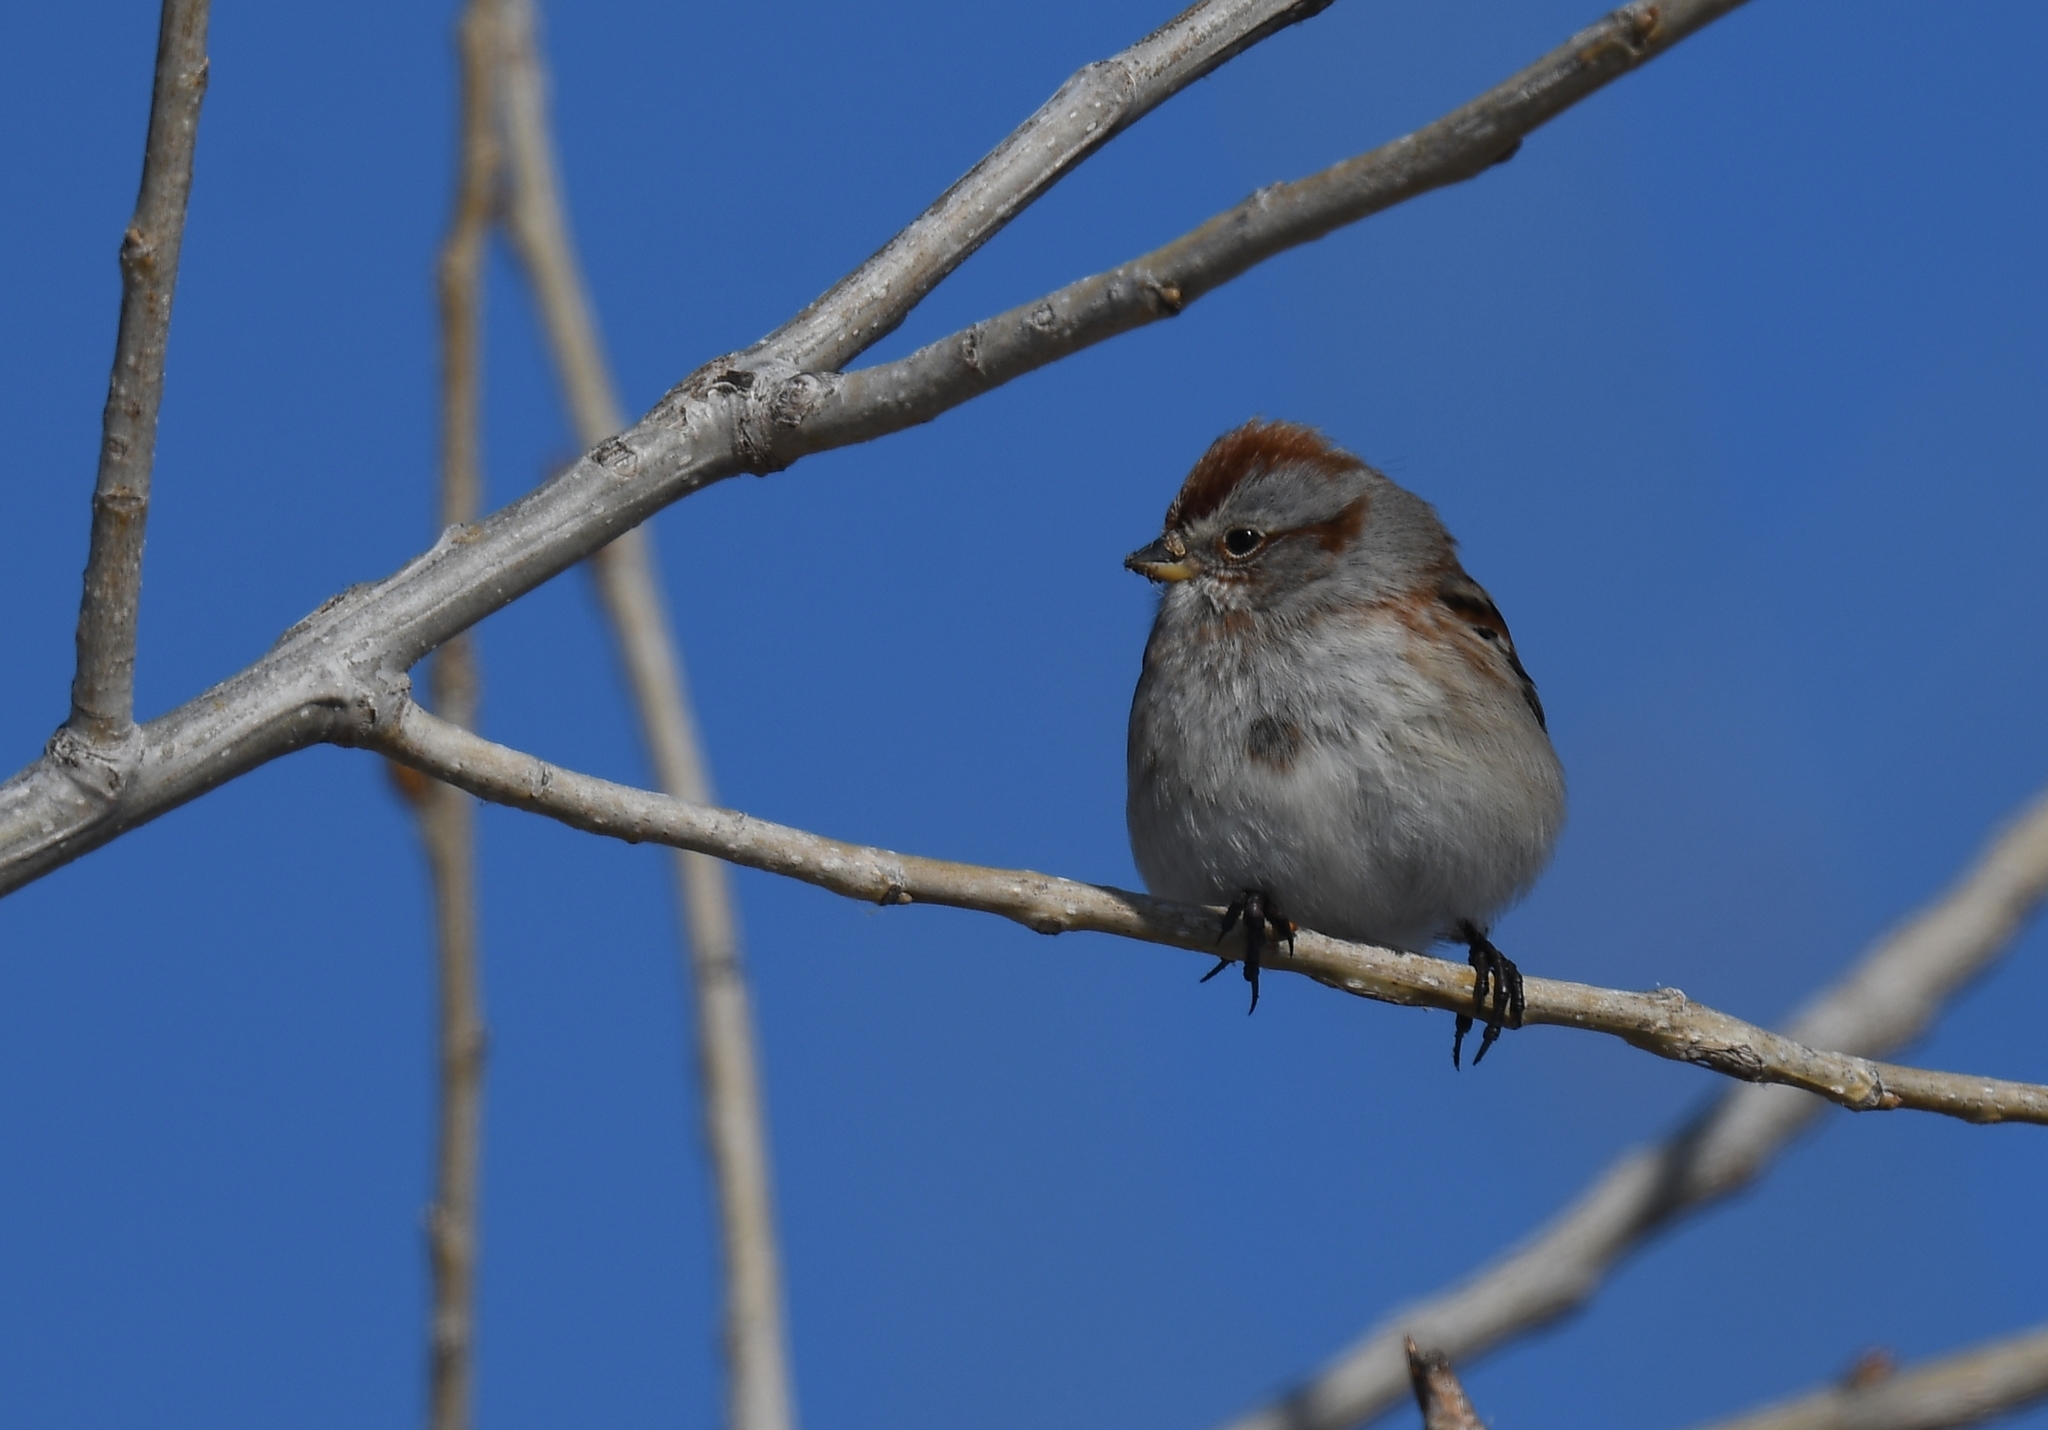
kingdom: Animalia
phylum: Chordata
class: Aves
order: Passeriformes
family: Passerellidae
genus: Spizelloides
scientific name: Spizelloides arborea
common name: American tree sparrow
